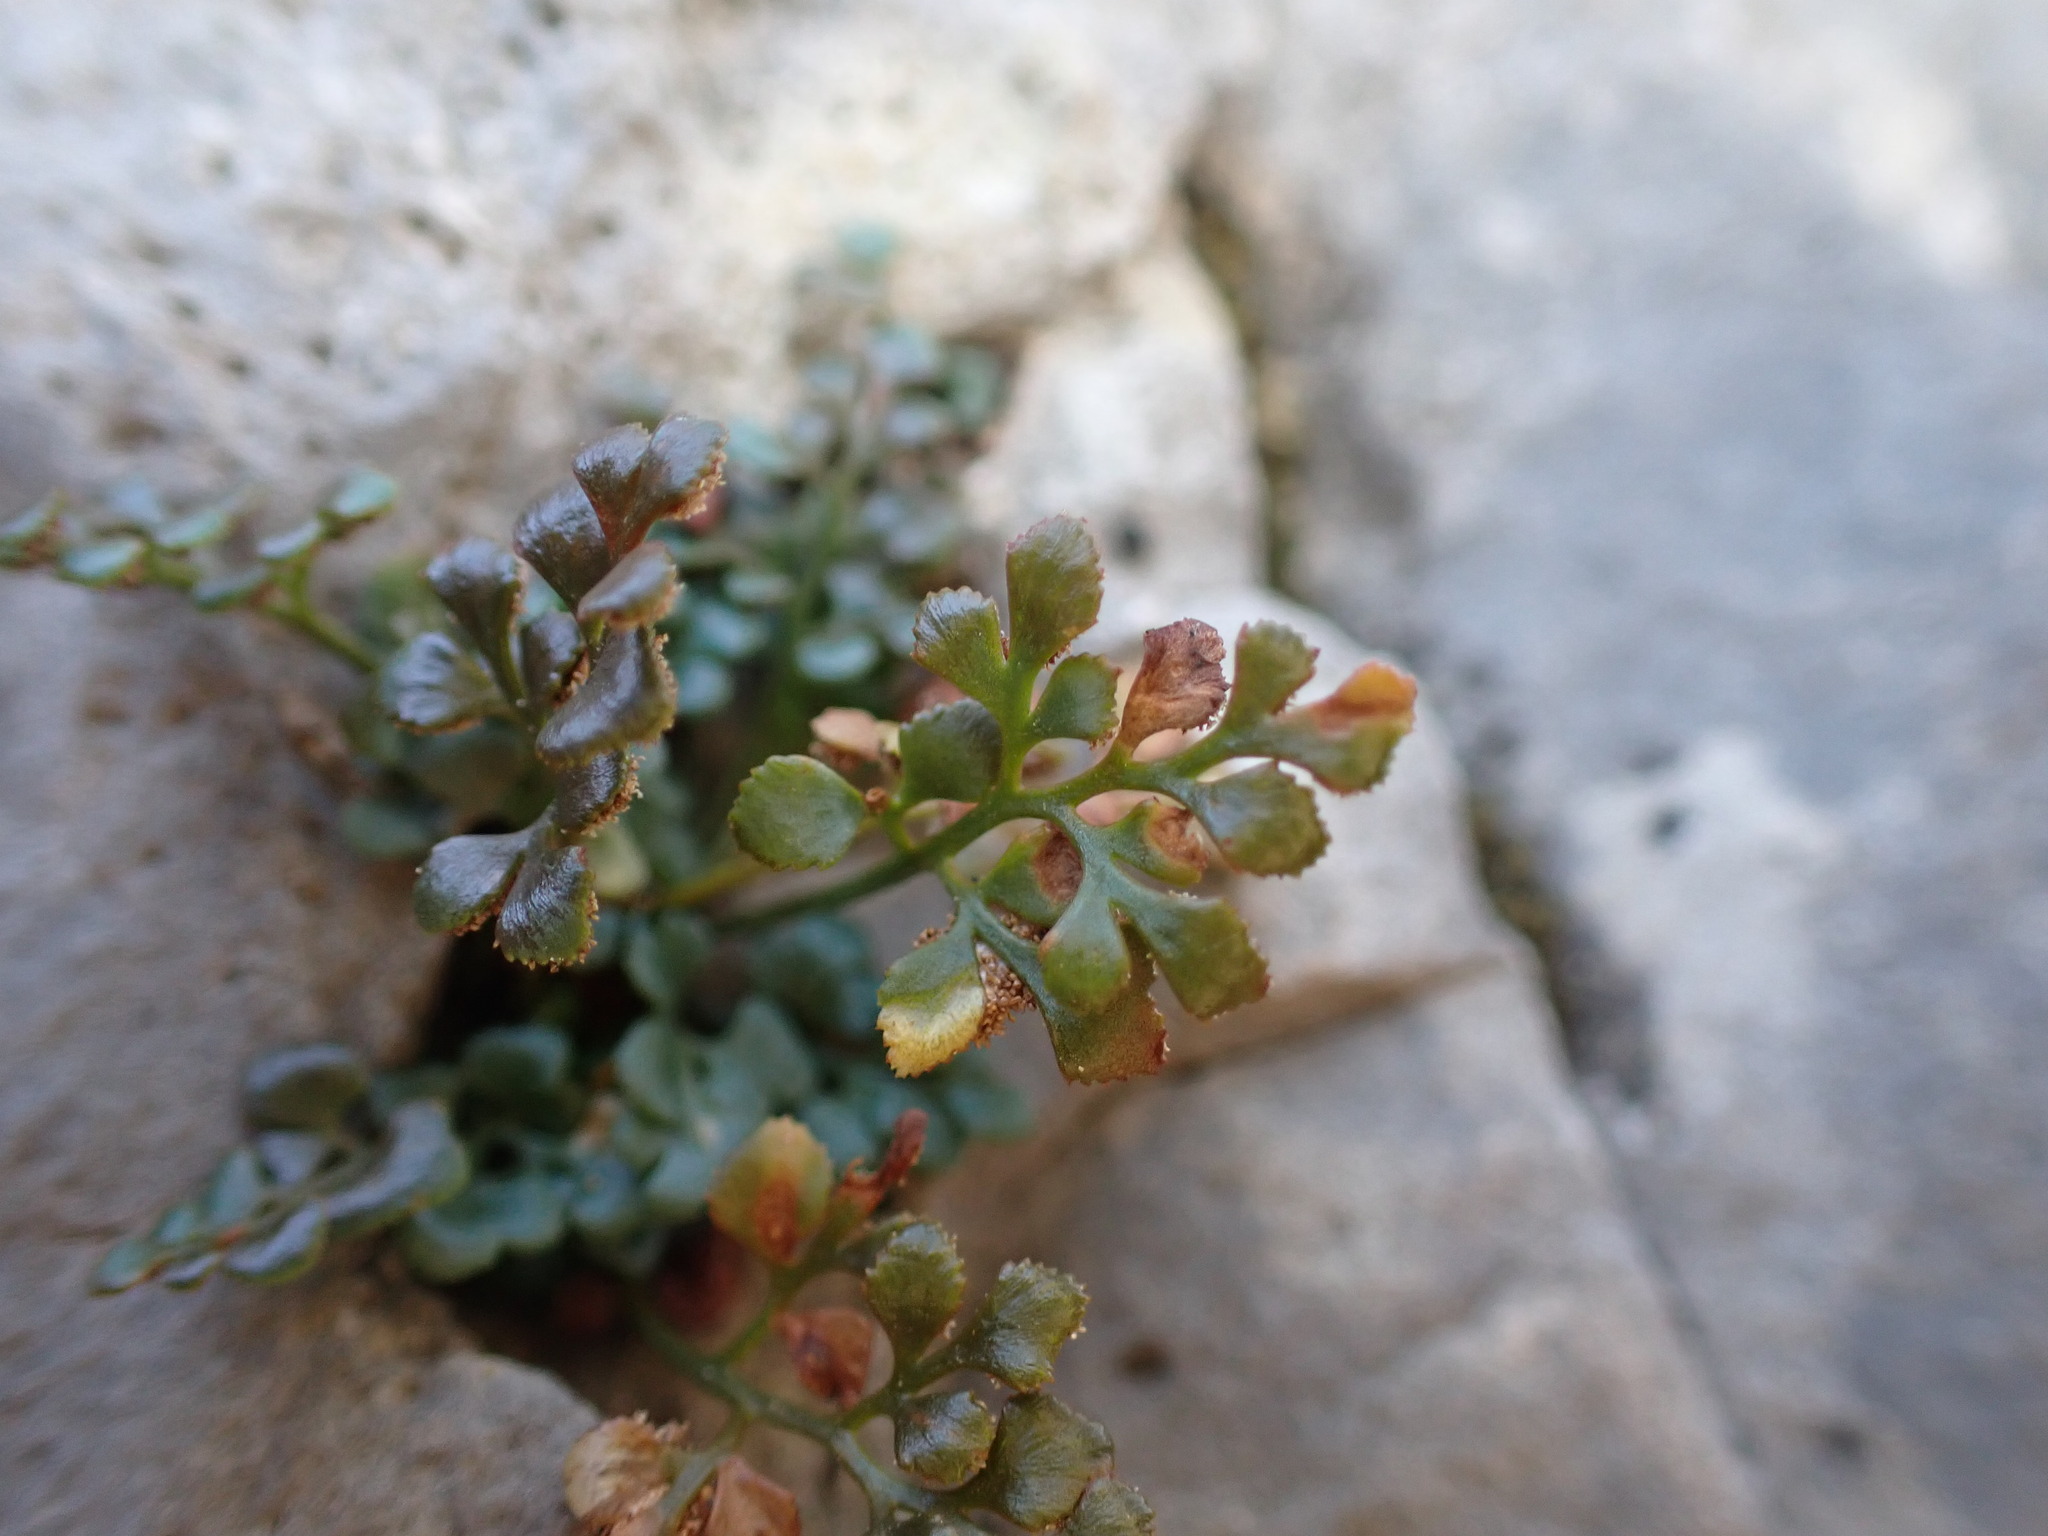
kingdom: Plantae
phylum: Tracheophyta
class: Polypodiopsida
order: Polypodiales
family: Aspleniaceae
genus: Asplenium
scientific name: Asplenium ruta-muraria
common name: Wall-rue
